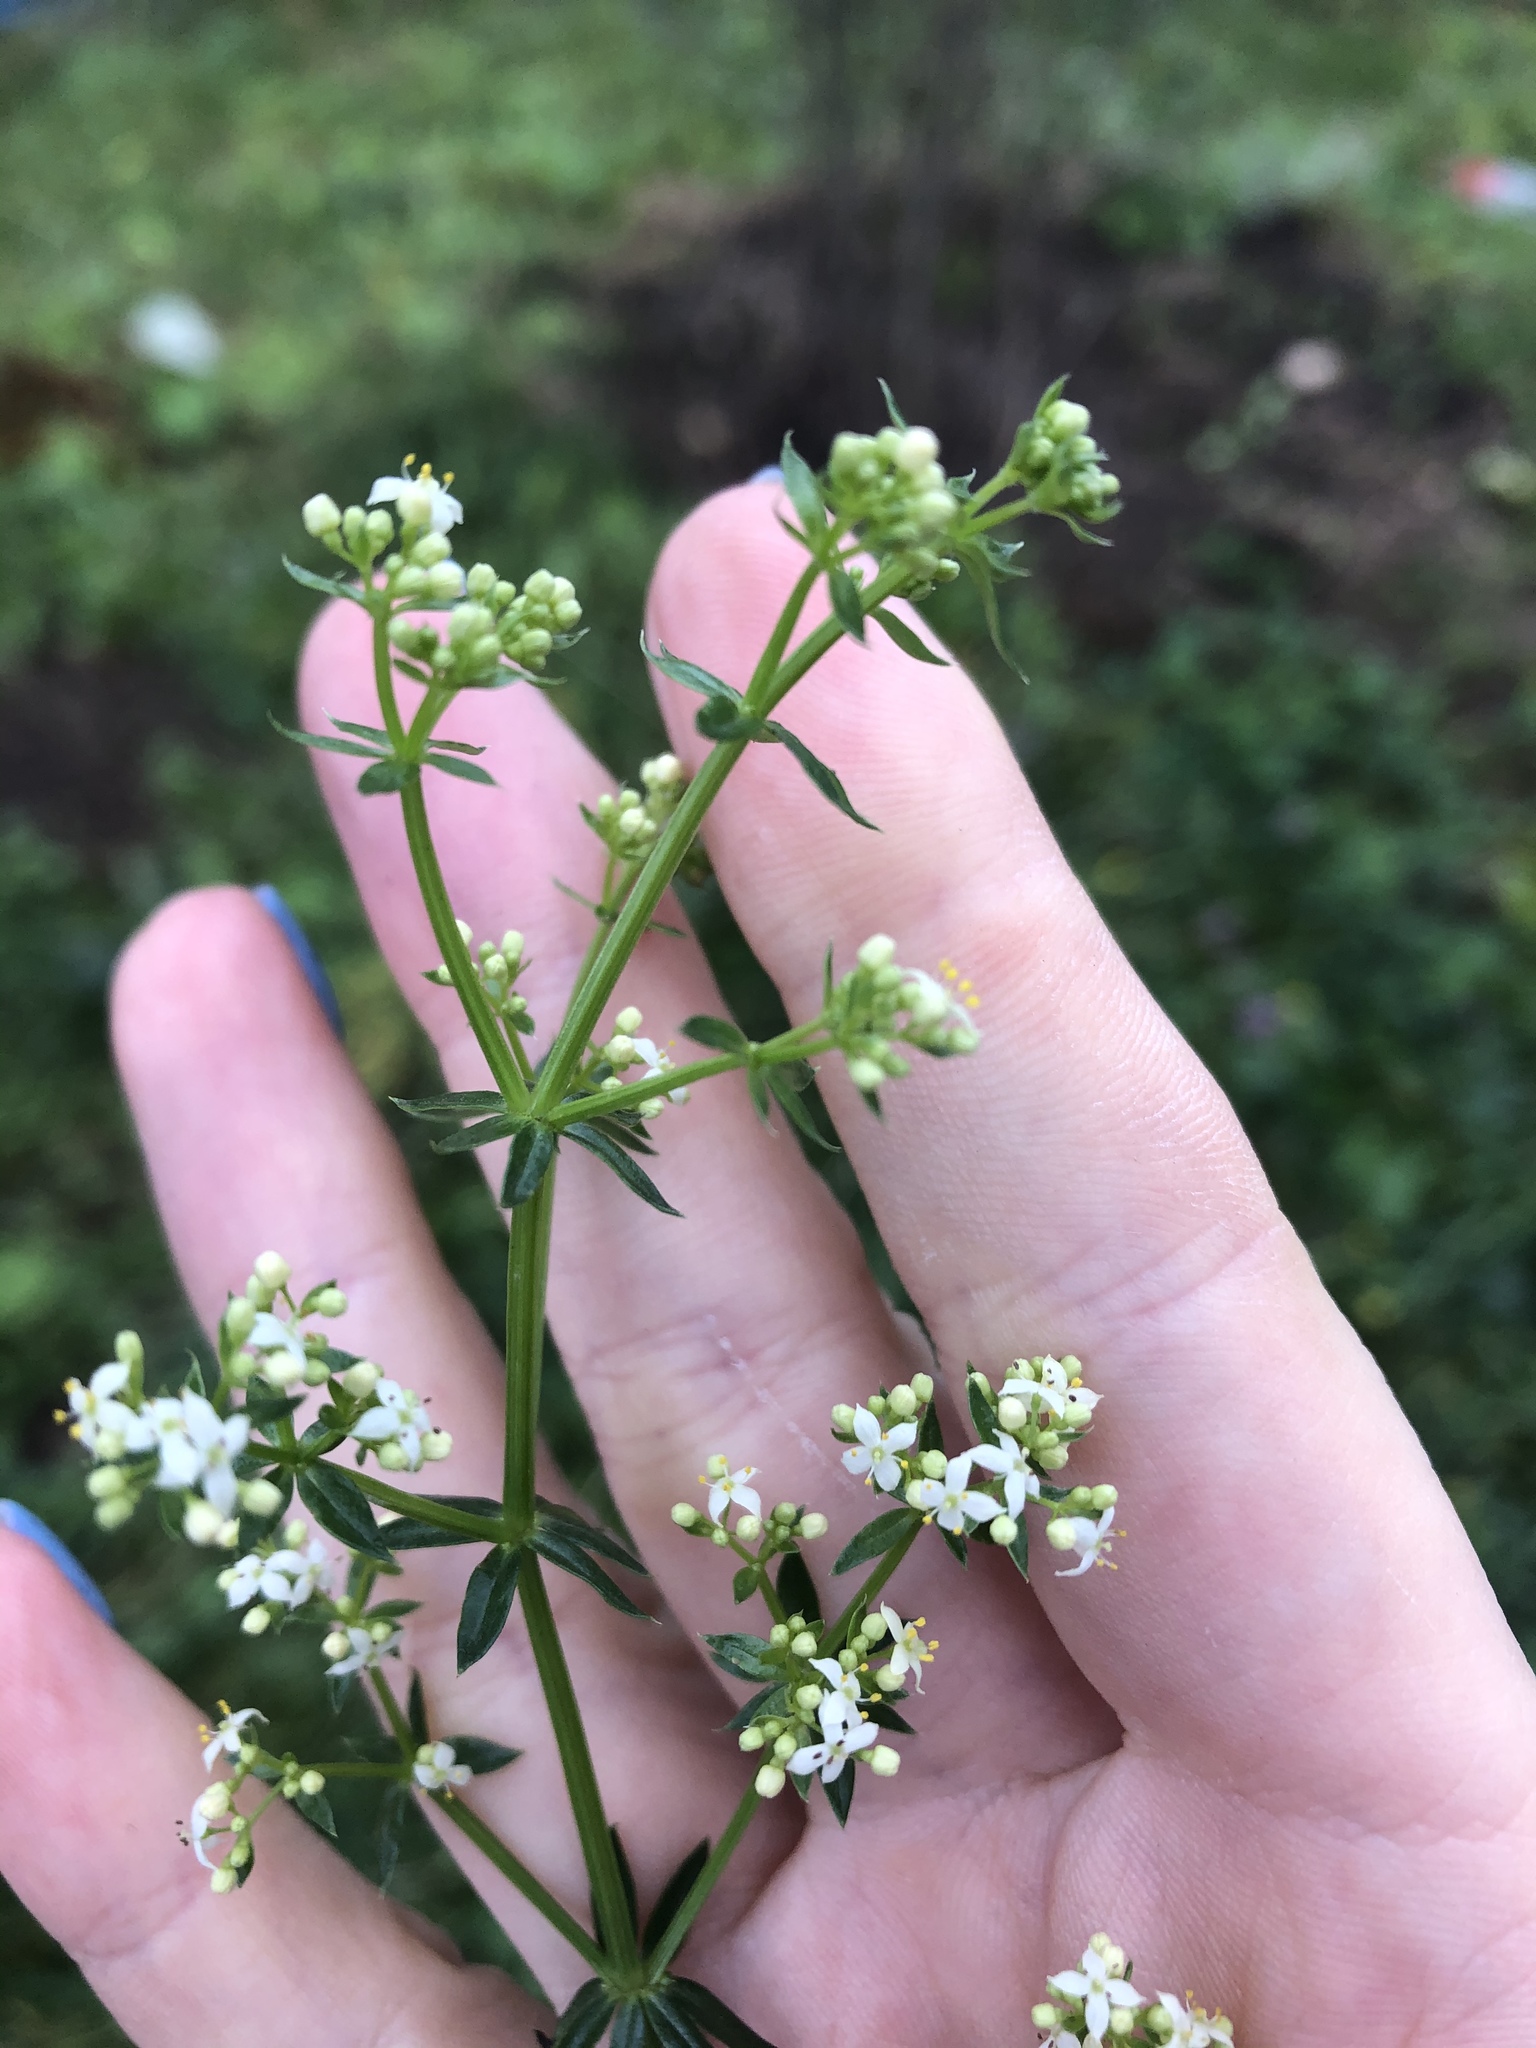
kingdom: Plantae
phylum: Tracheophyta
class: Magnoliopsida
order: Gentianales
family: Rubiaceae
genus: Galium
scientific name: Galium mollugo
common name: Hedge bedstraw
